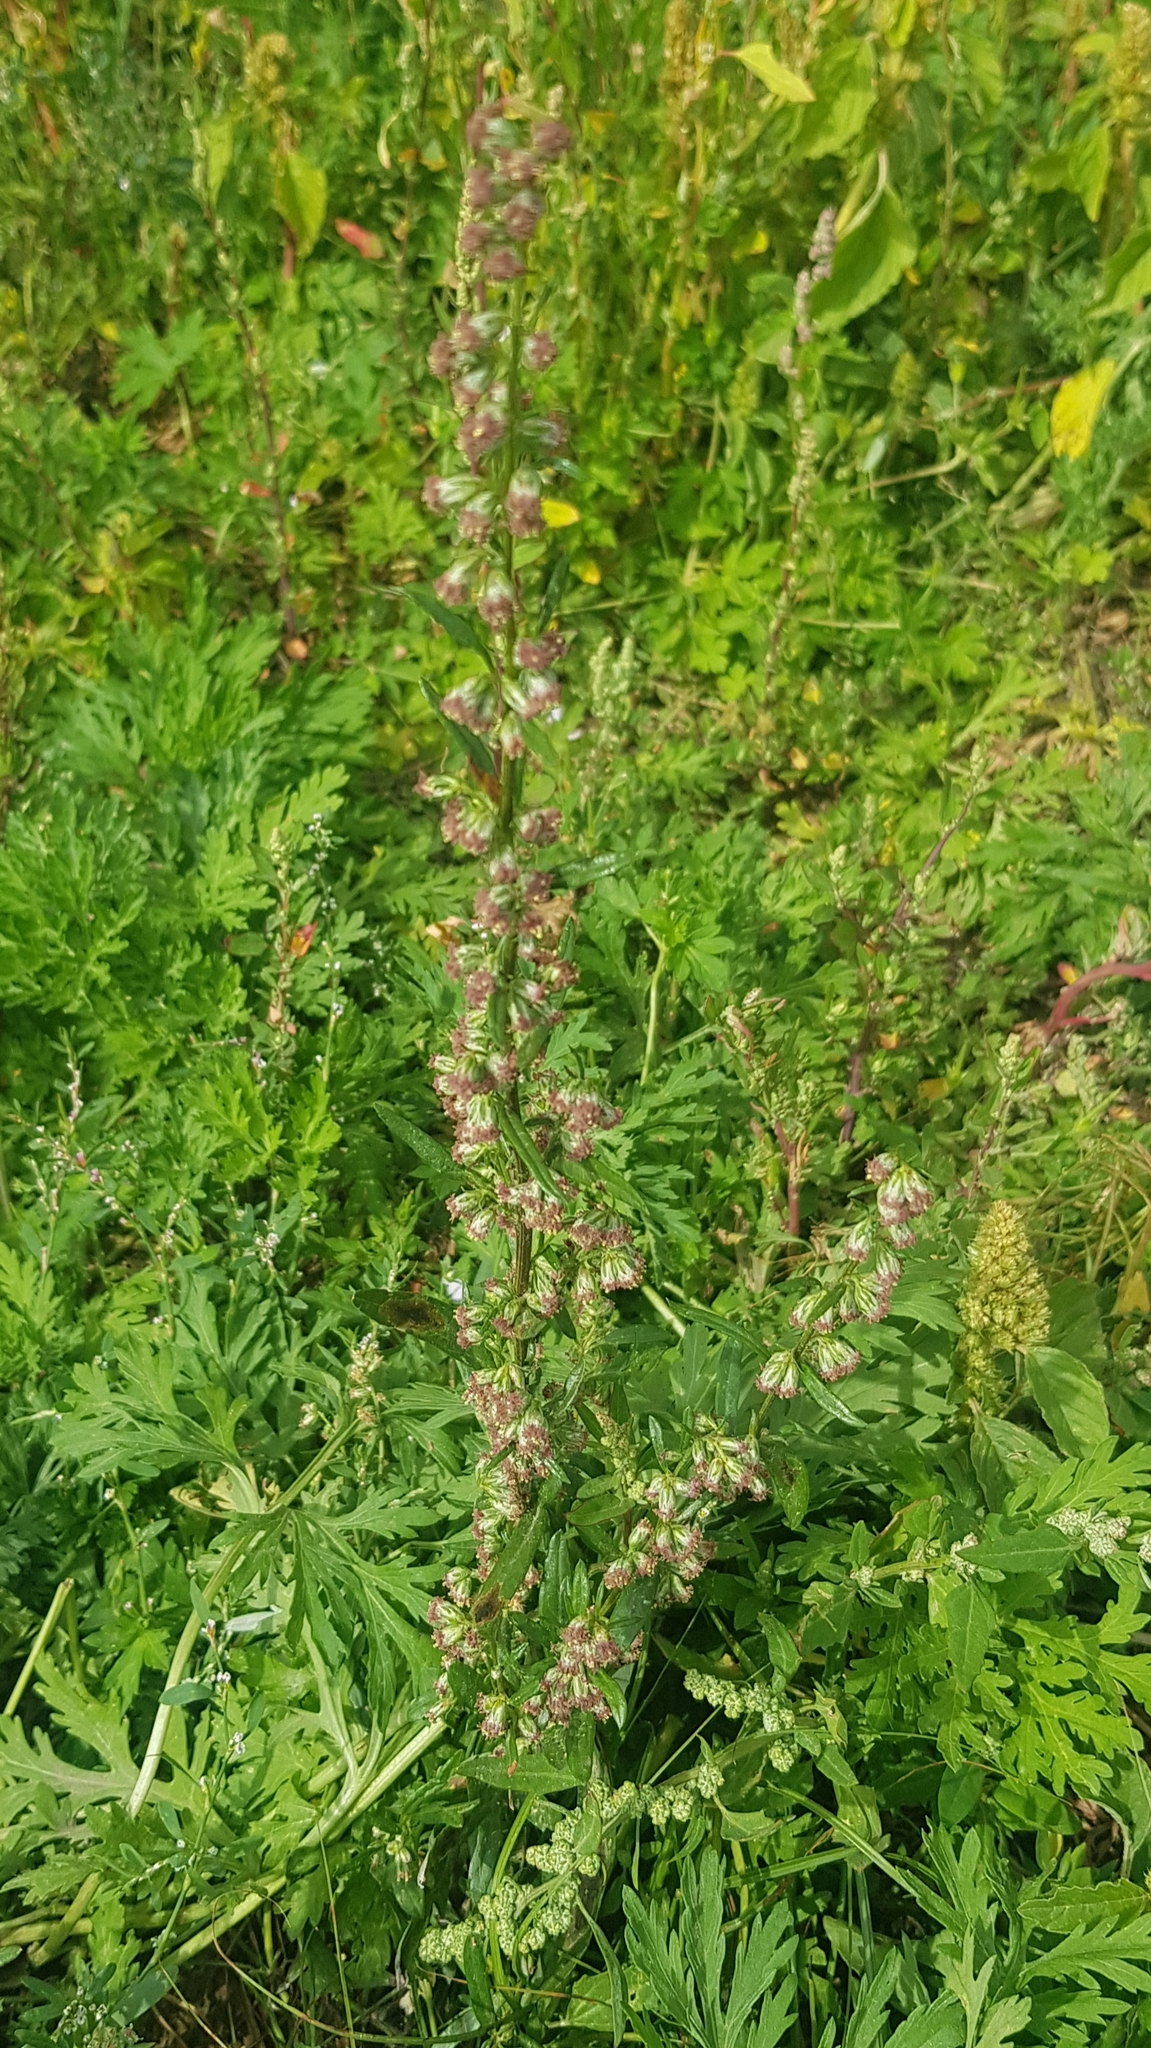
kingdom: Plantae
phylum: Tracheophyta
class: Magnoliopsida
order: Asterales
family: Asteraceae
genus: Artemisia
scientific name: Artemisia integrifolia
